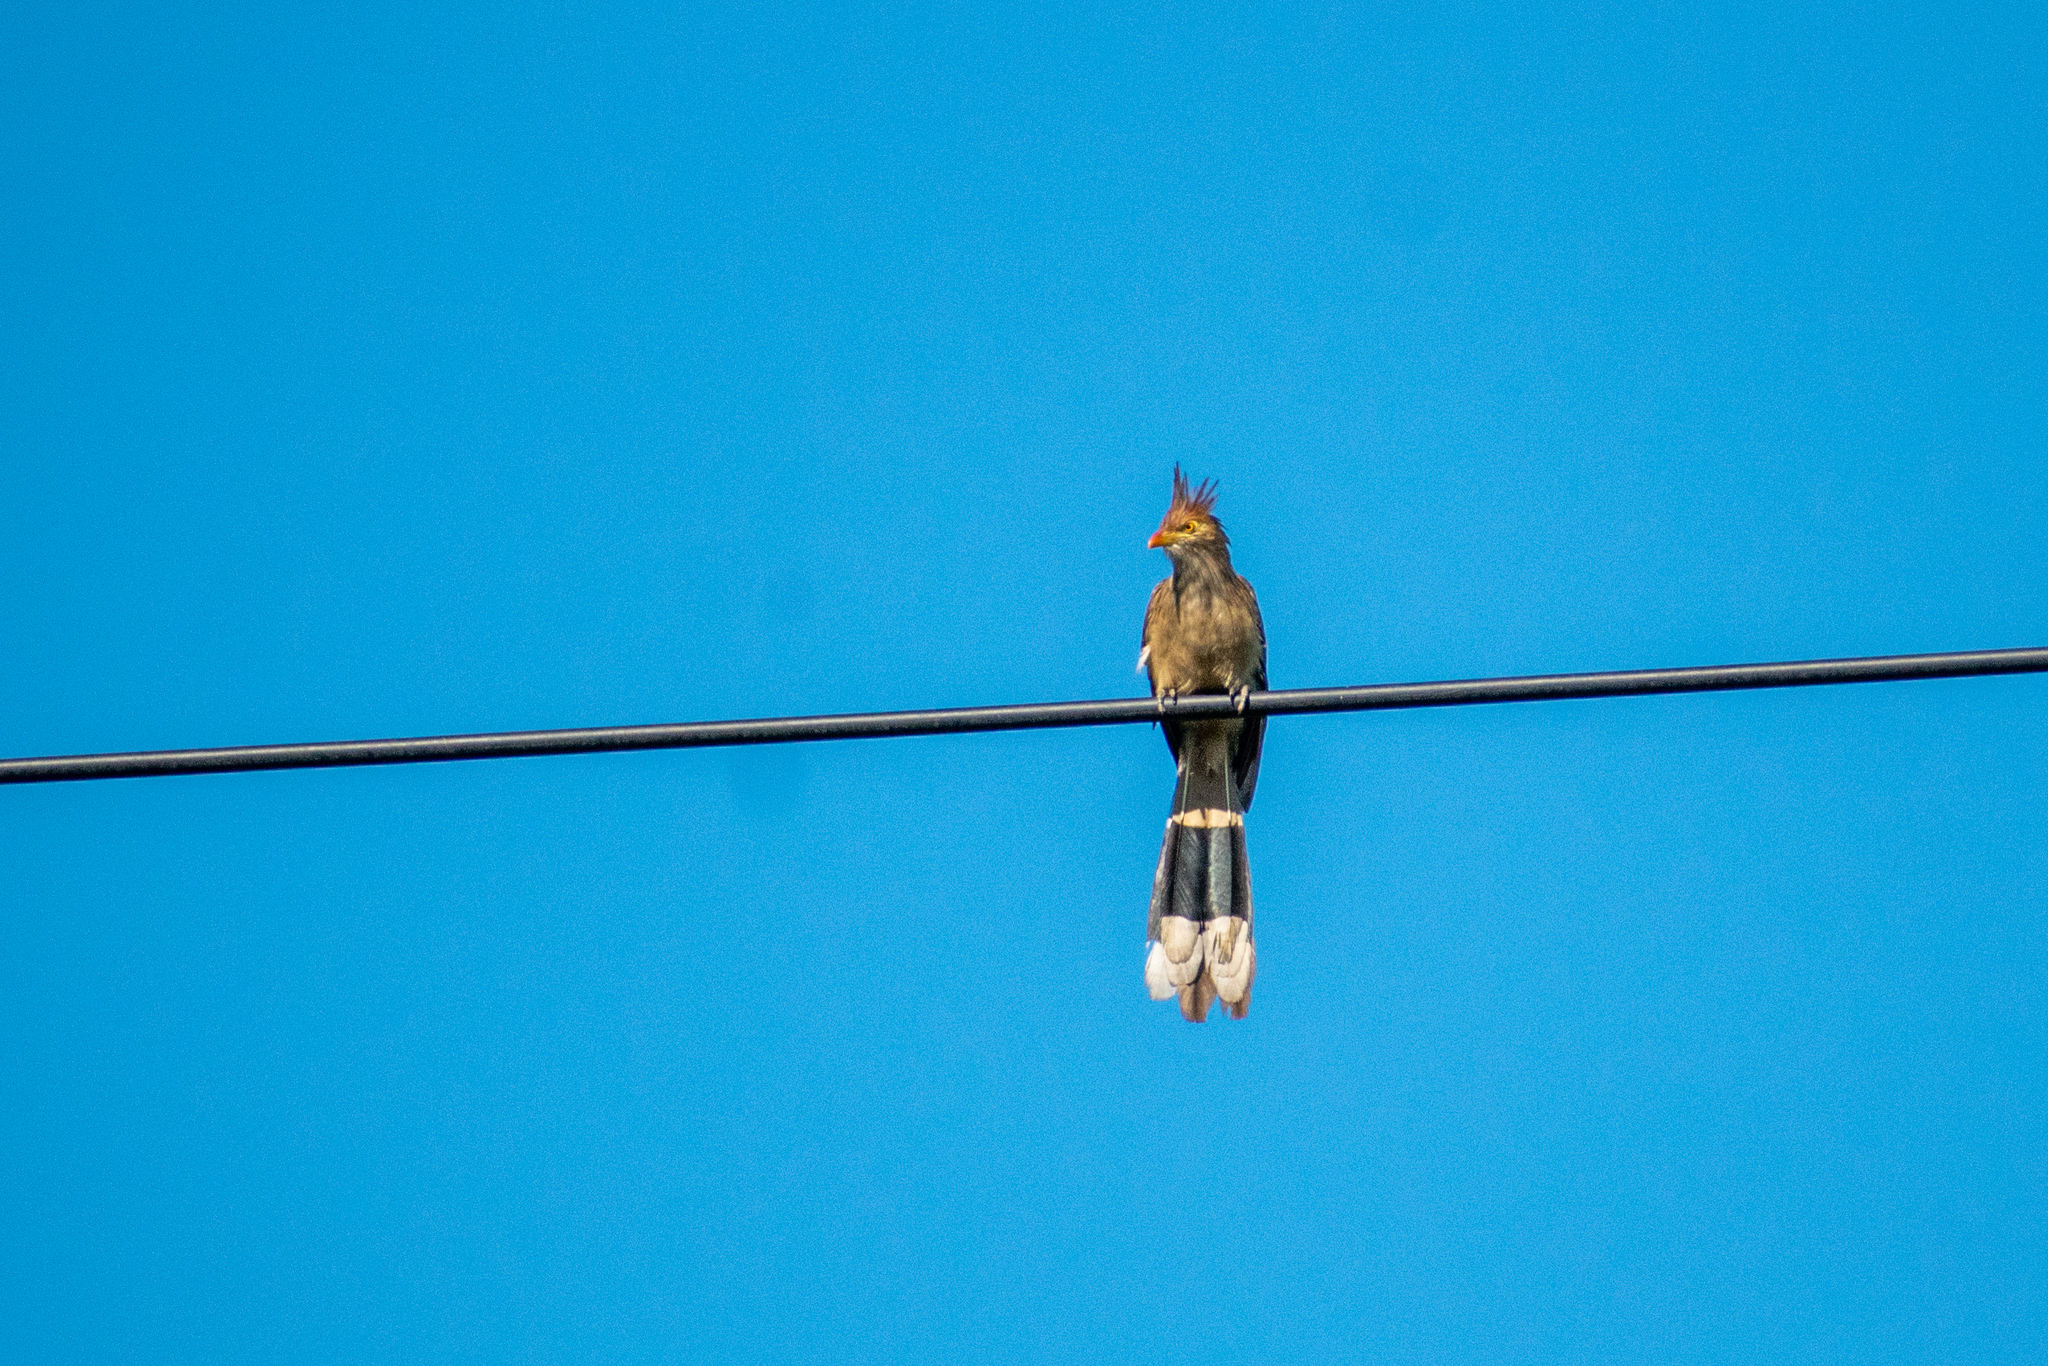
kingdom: Animalia
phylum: Chordata
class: Aves
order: Cuculiformes
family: Cuculidae
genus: Guira
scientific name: Guira guira
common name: Guira cuckoo
